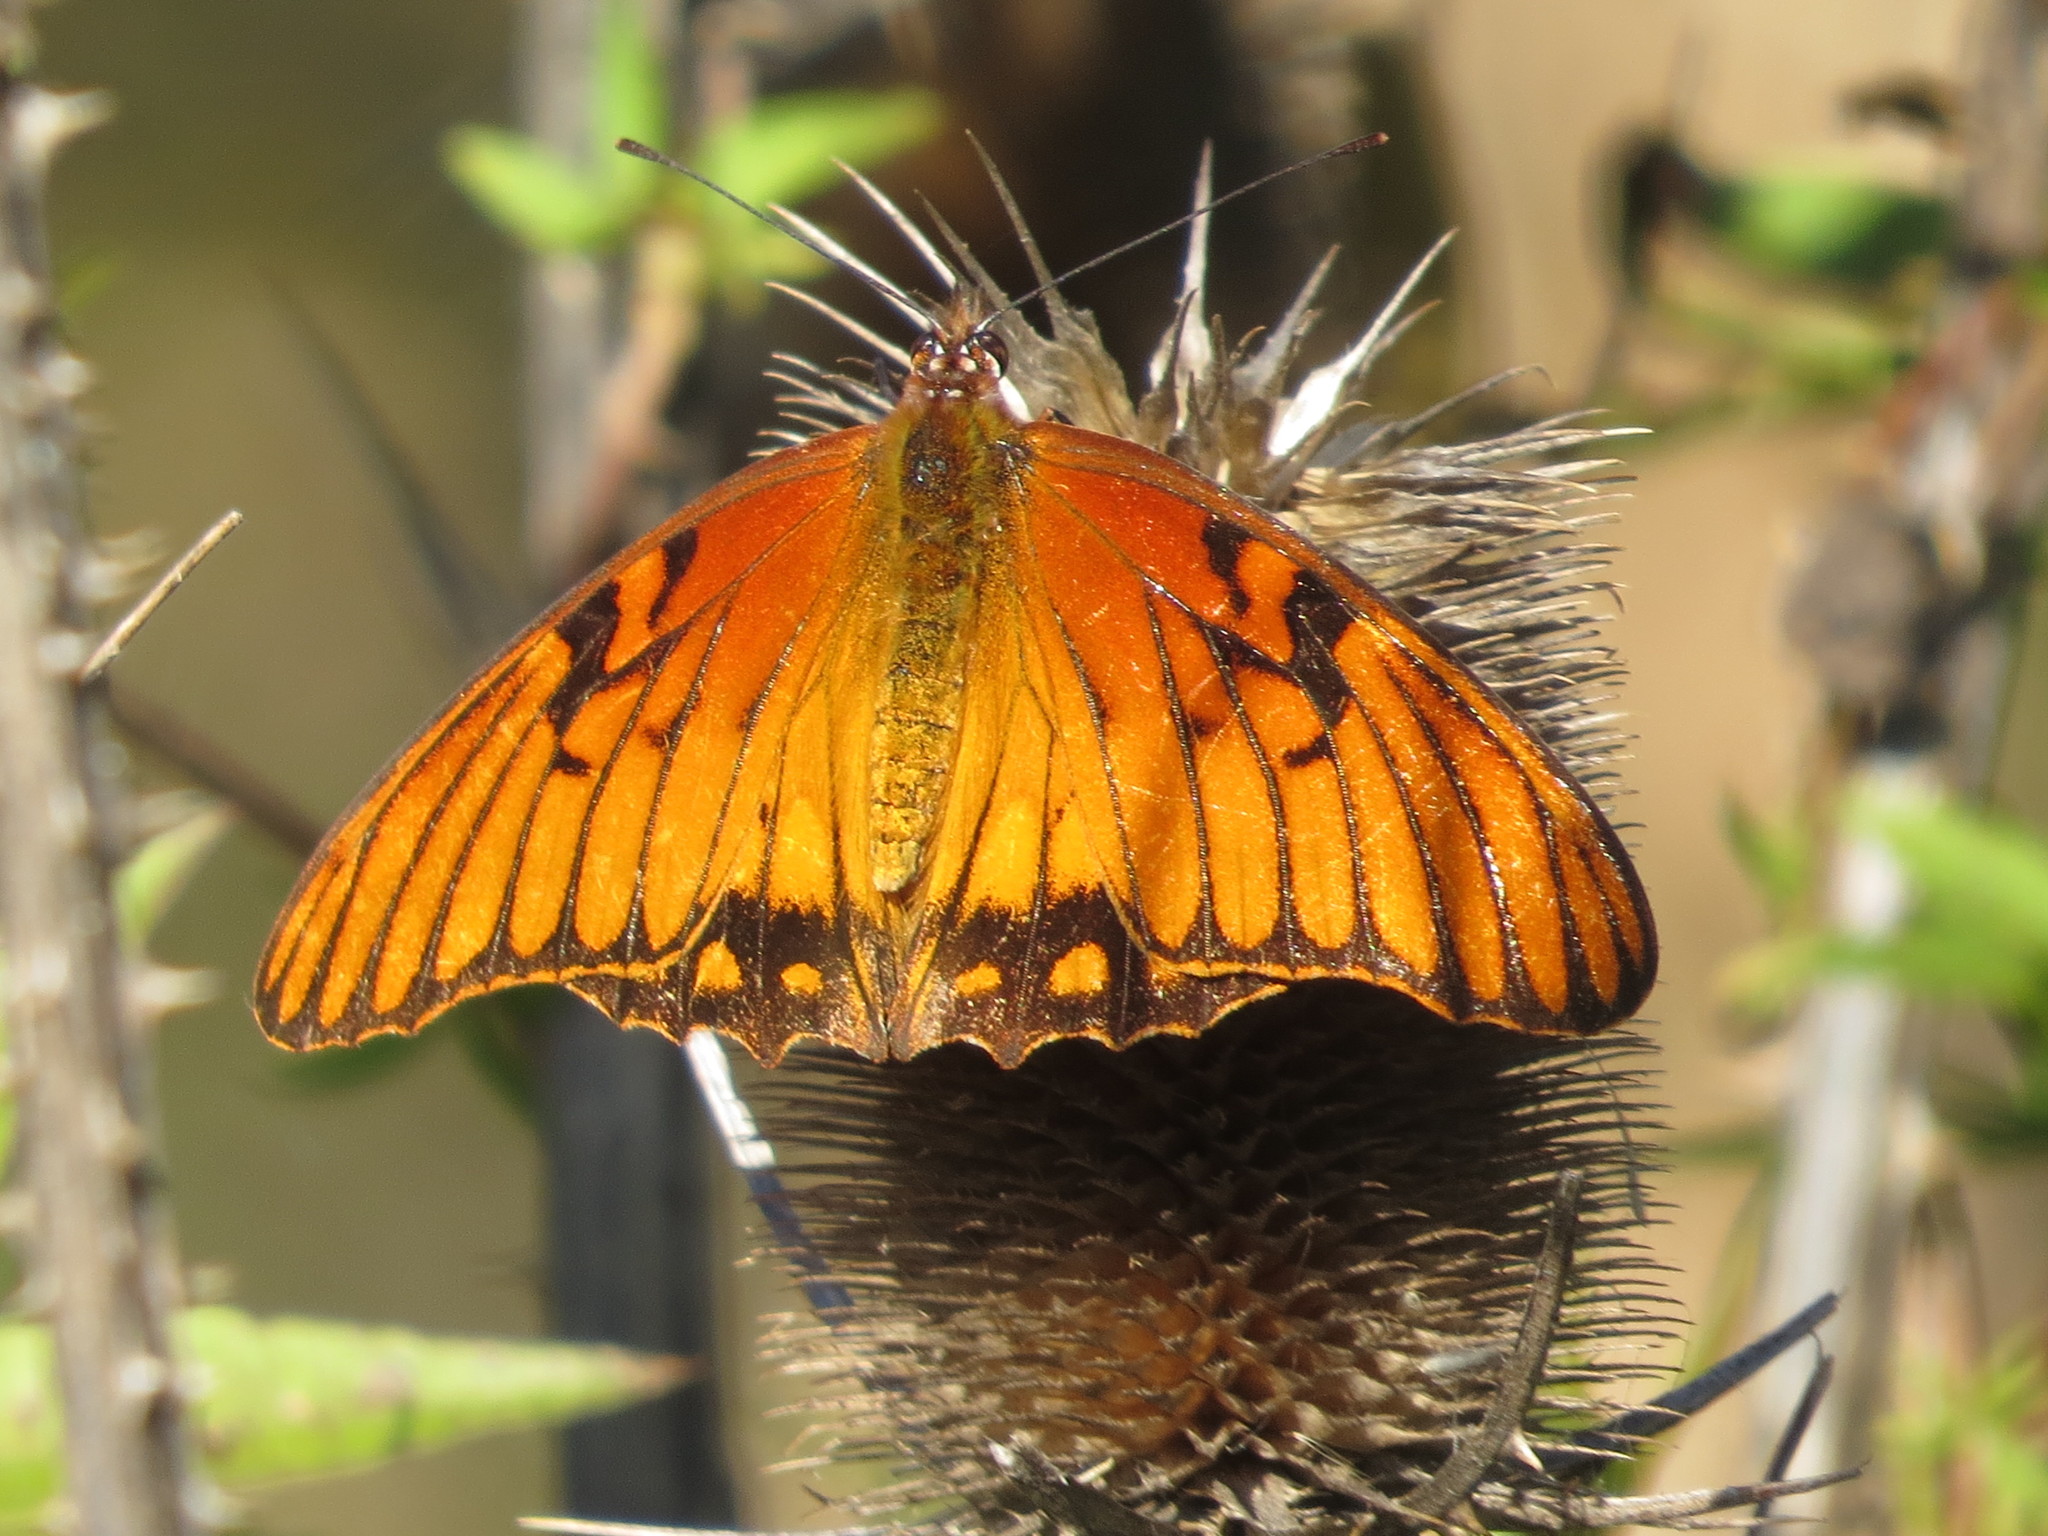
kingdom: Animalia
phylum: Arthropoda
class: Insecta
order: Lepidoptera
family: Nymphalidae
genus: Dione
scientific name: Dione moneta
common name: Mexican silverspot
